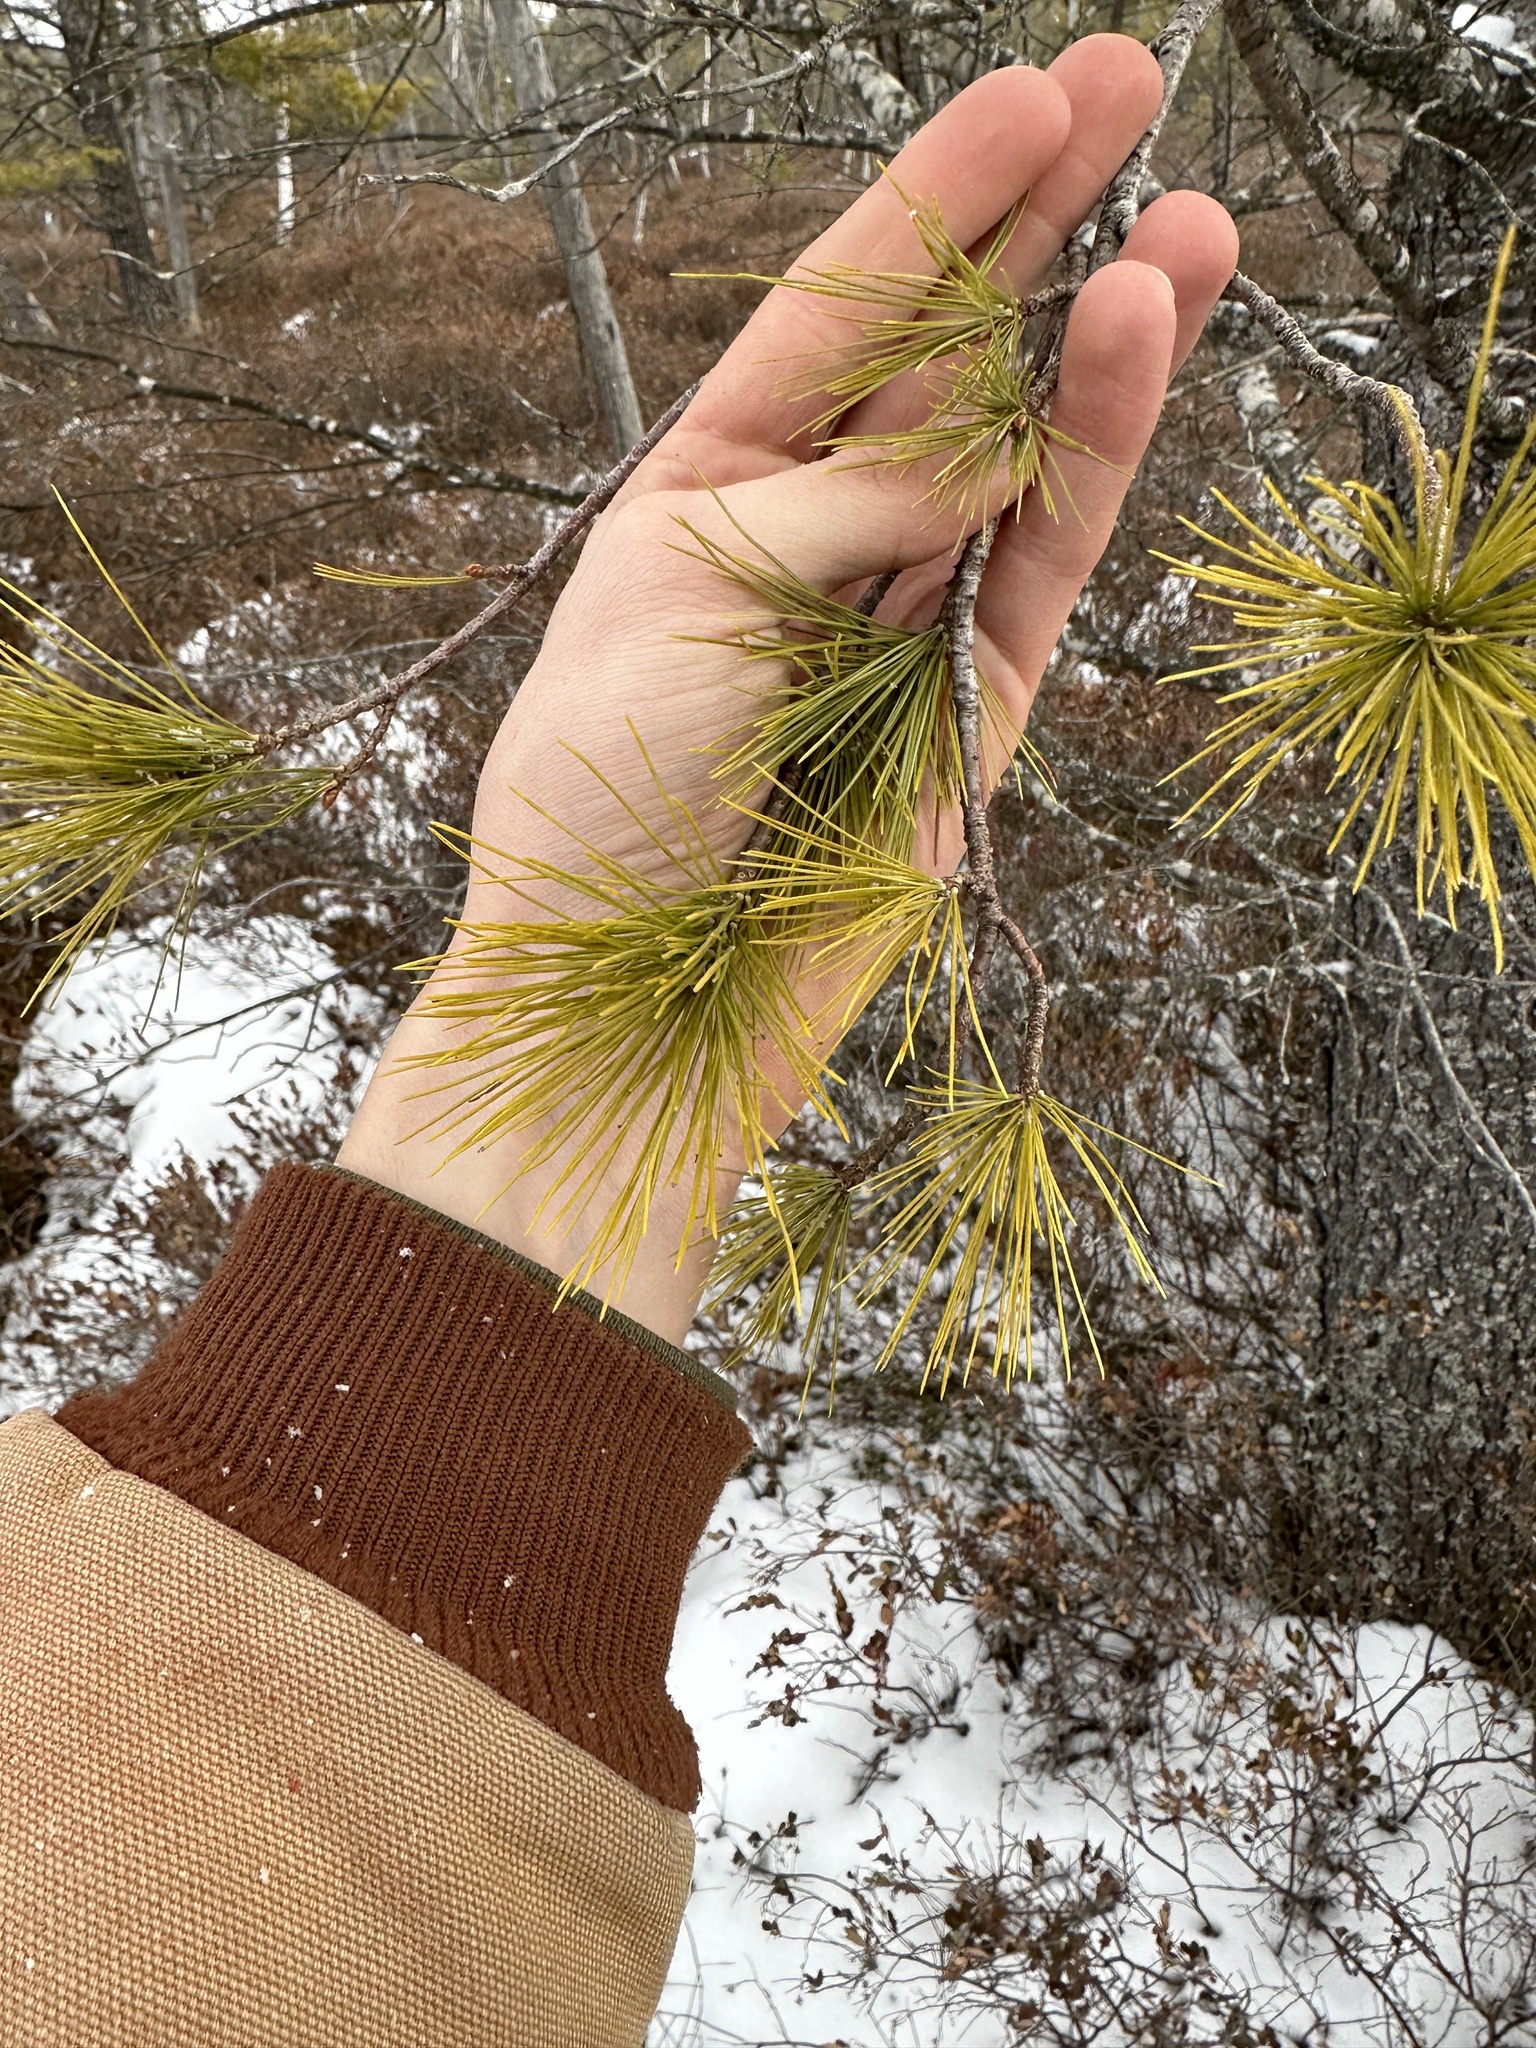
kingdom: Plantae
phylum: Tracheophyta
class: Pinopsida
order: Pinales
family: Pinaceae
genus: Pinus
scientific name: Pinus strobus
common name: Weymouth pine
